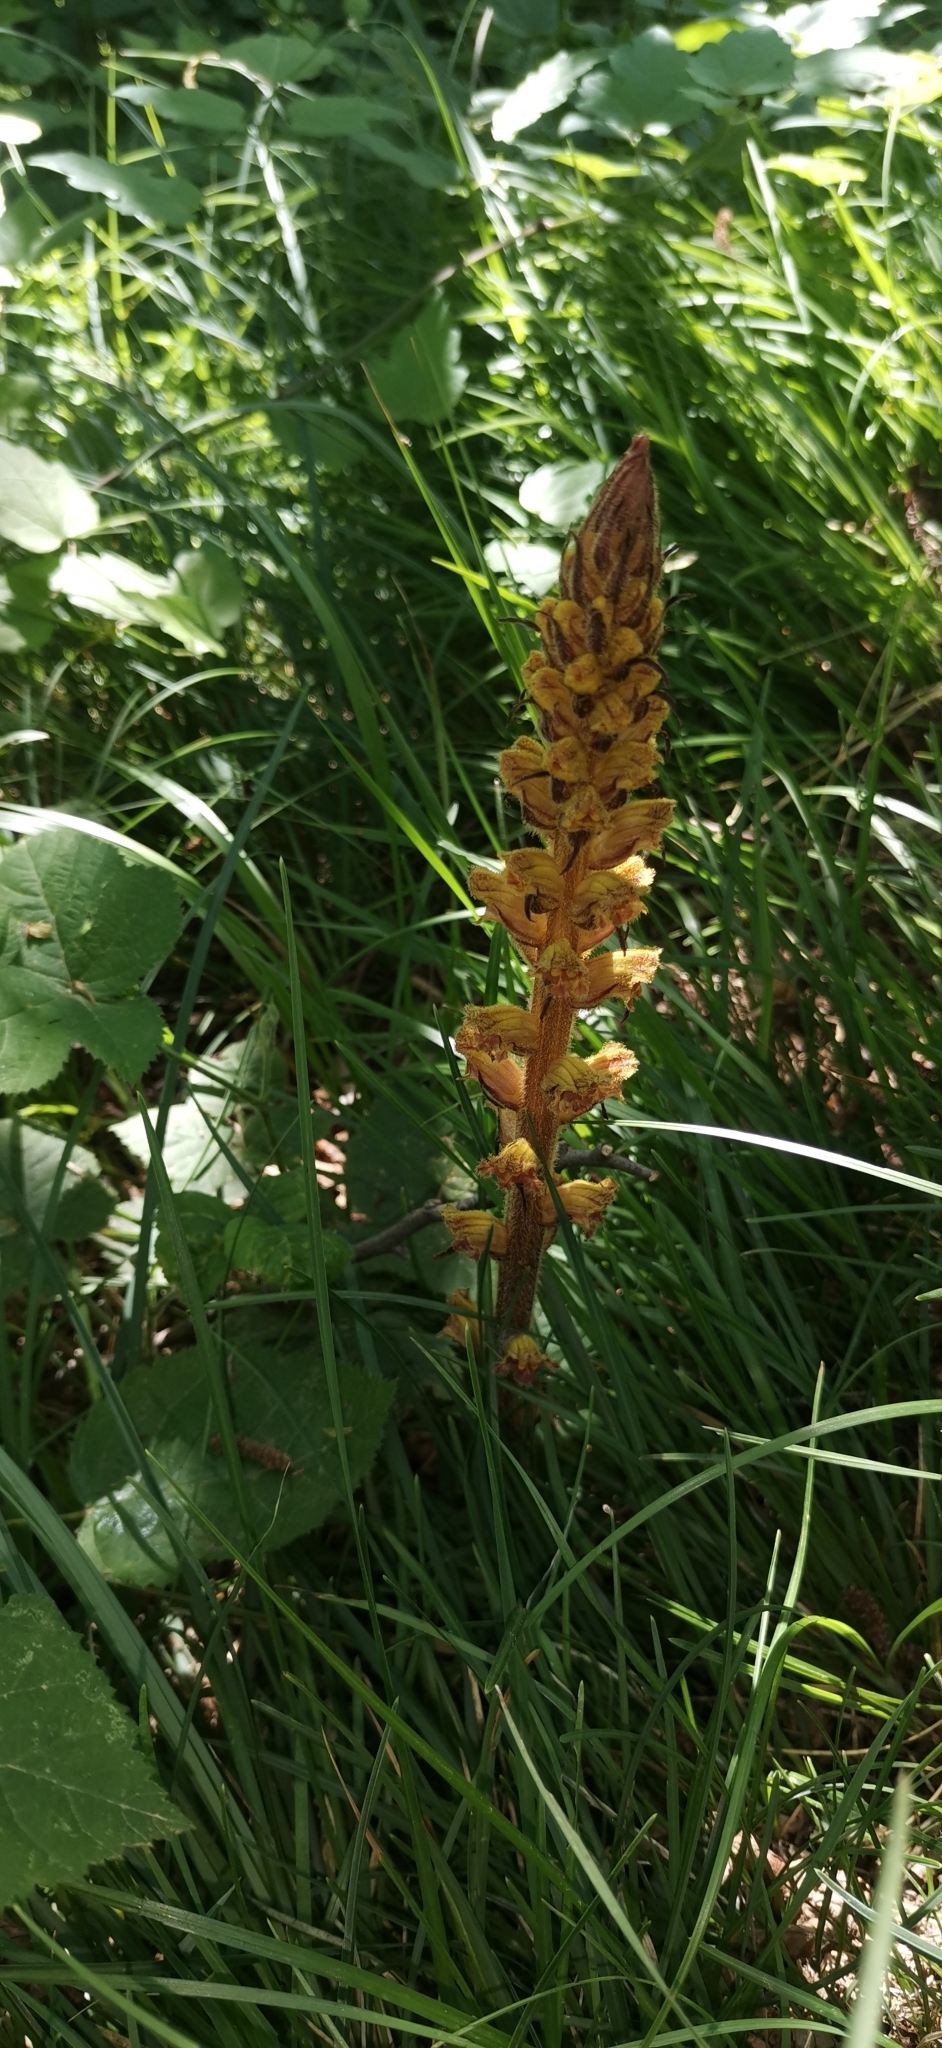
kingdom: Plantae
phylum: Tracheophyta
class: Magnoliopsida
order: Lamiales
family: Orobanchaceae
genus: Orobanche
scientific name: Orobanche gracilis
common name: Slender broomrape
